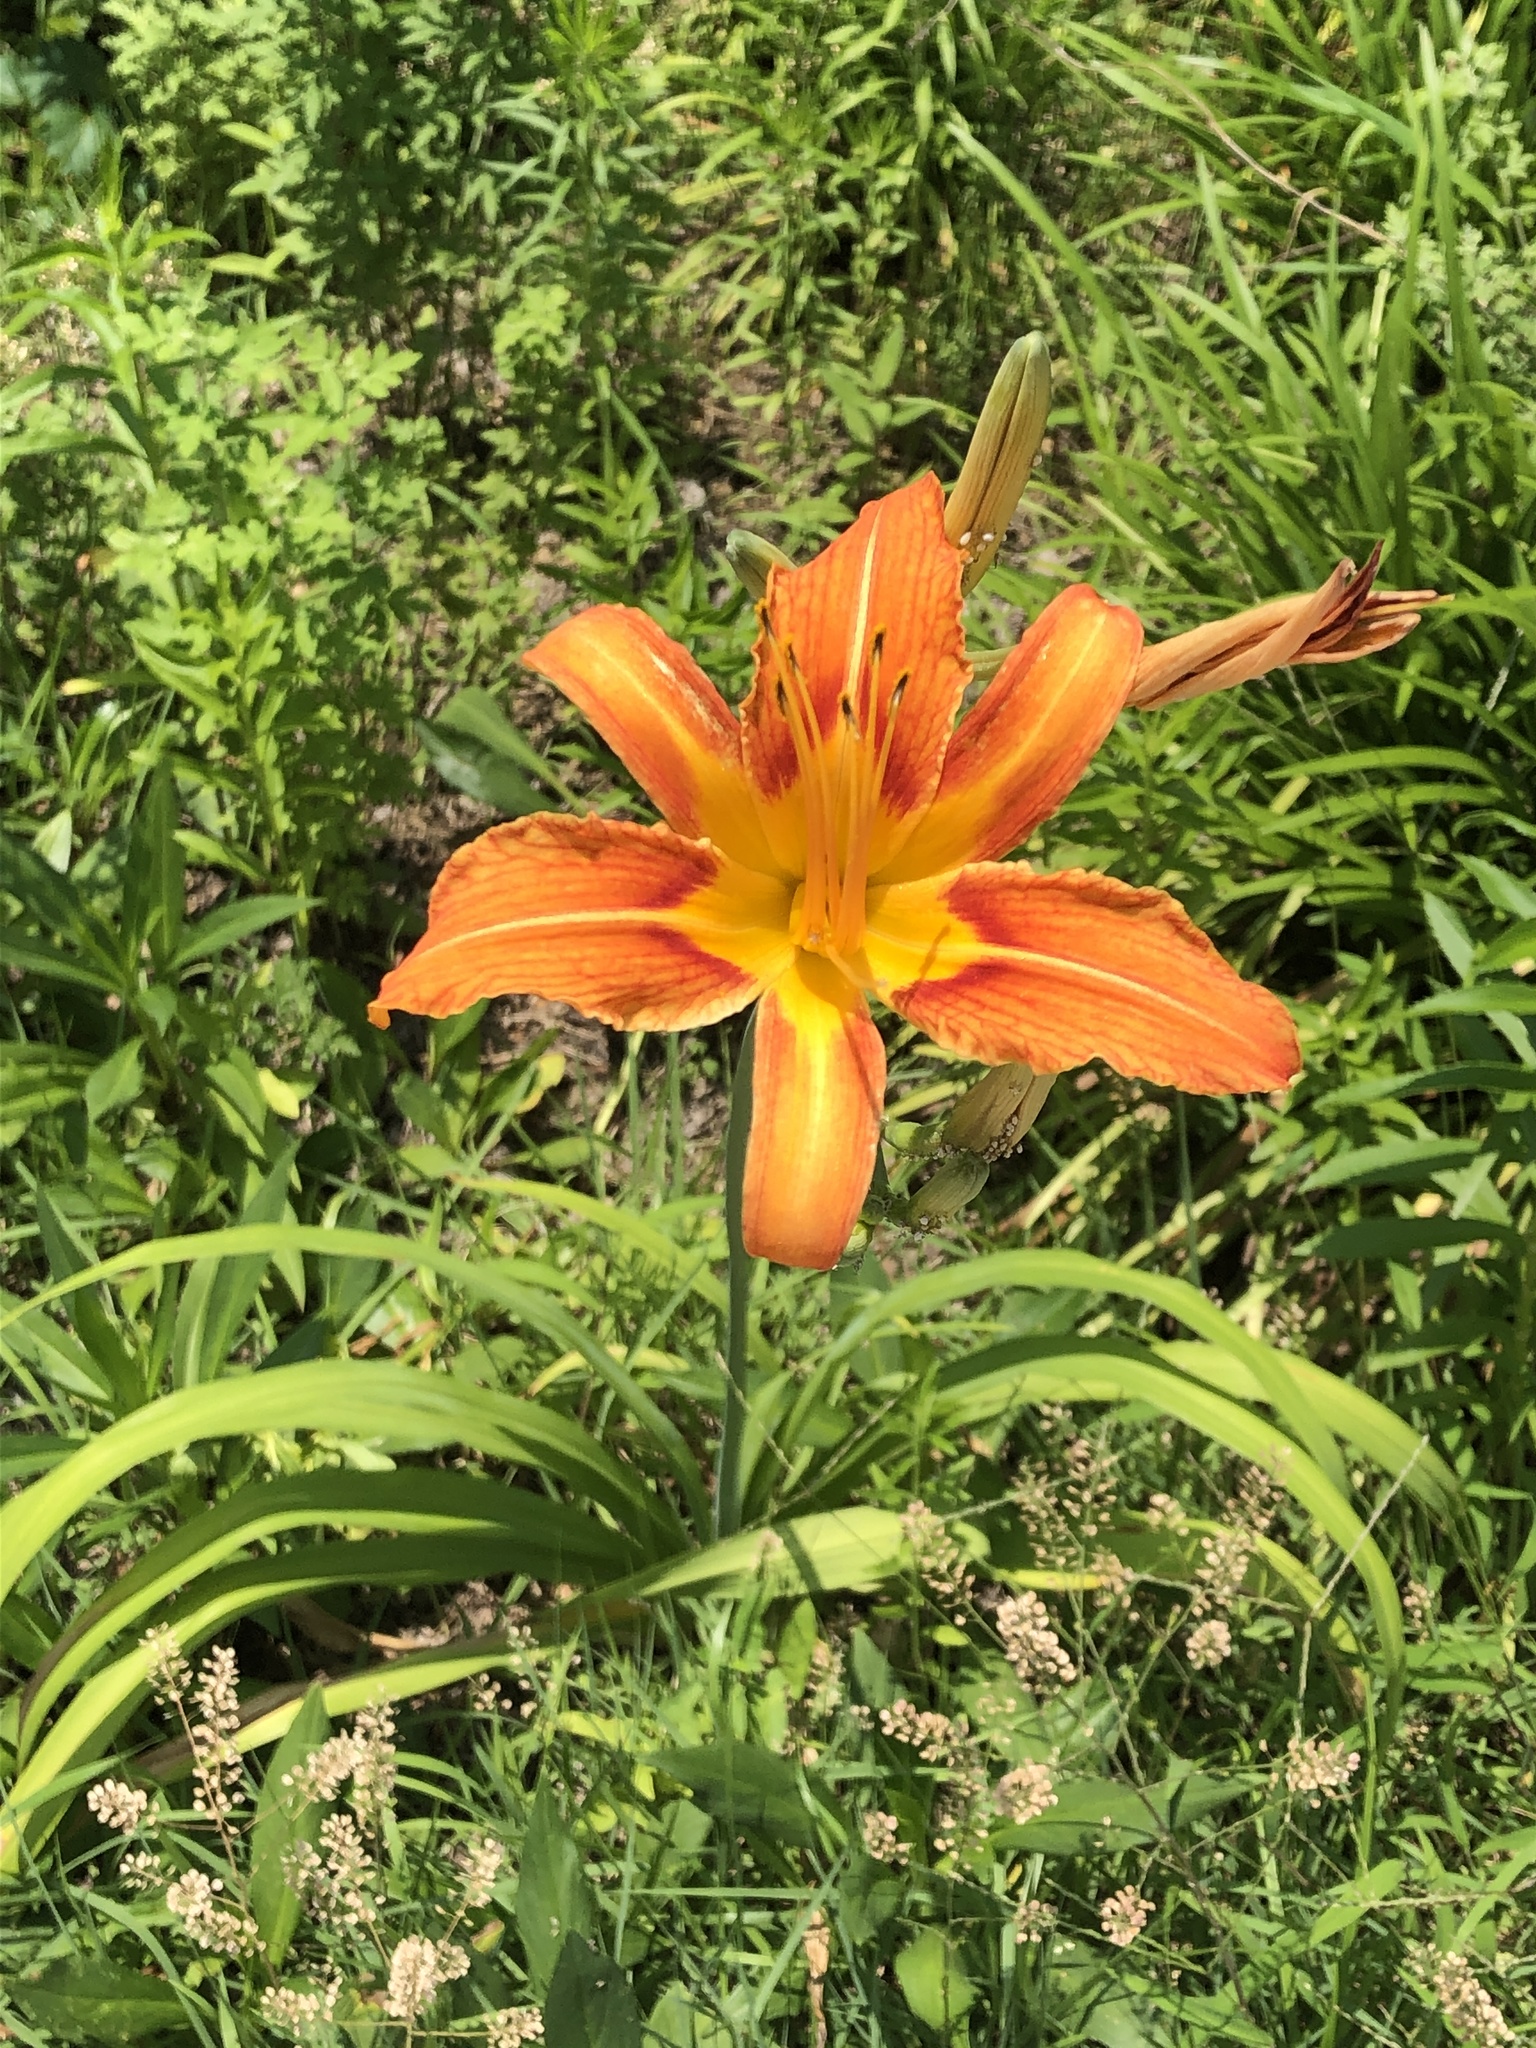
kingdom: Plantae
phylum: Tracheophyta
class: Liliopsida
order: Asparagales
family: Asphodelaceae
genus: Hemerocallis
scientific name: Hemerocallis fulva
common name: Orange day-lily
